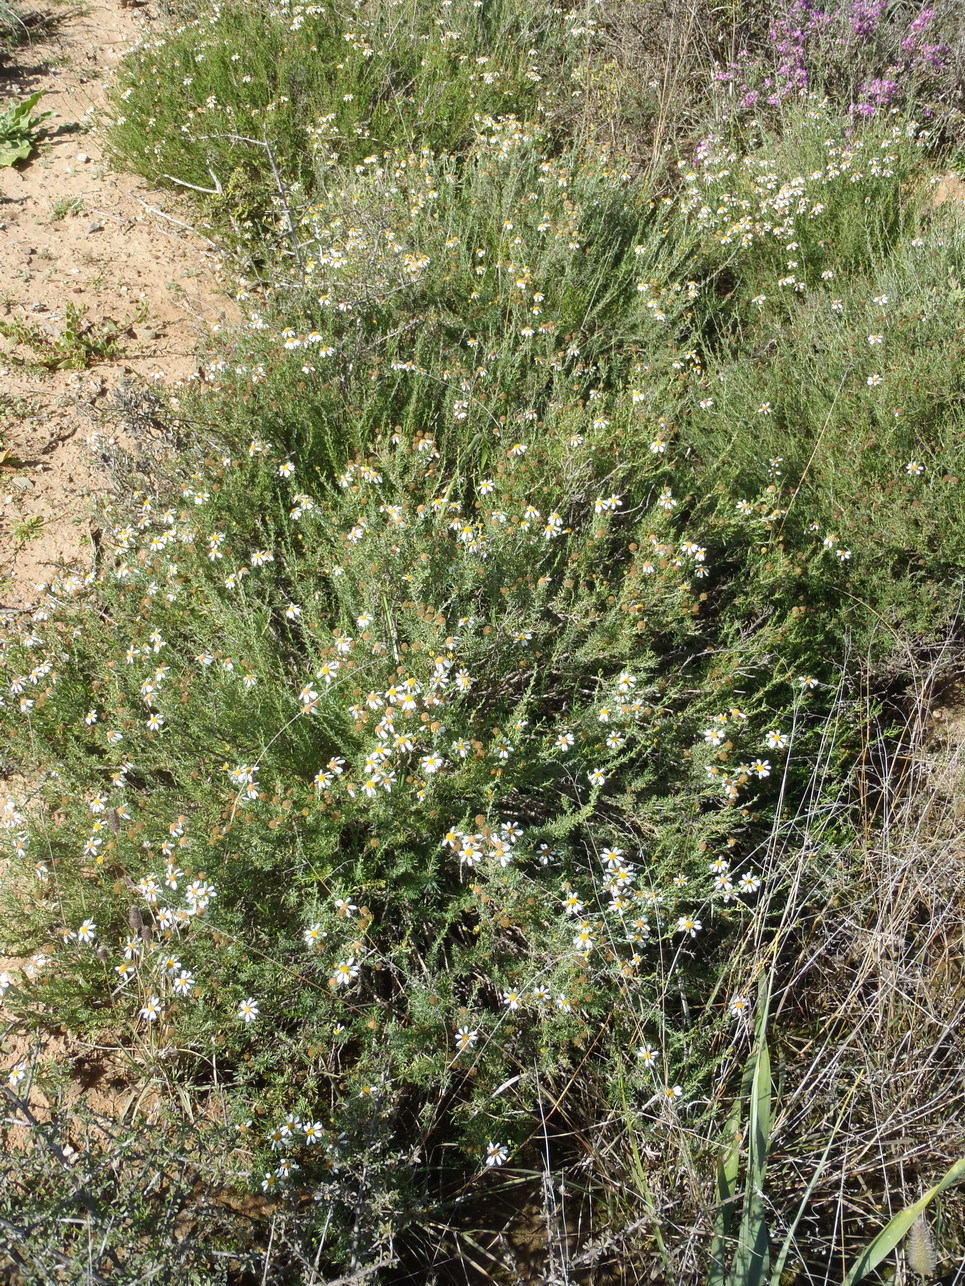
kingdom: Plantae
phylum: Tracheophyta
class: Magnoliopsida
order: Asterales
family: Asteraceae
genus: Phymaspermum
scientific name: Phymaspermum parvifolium
